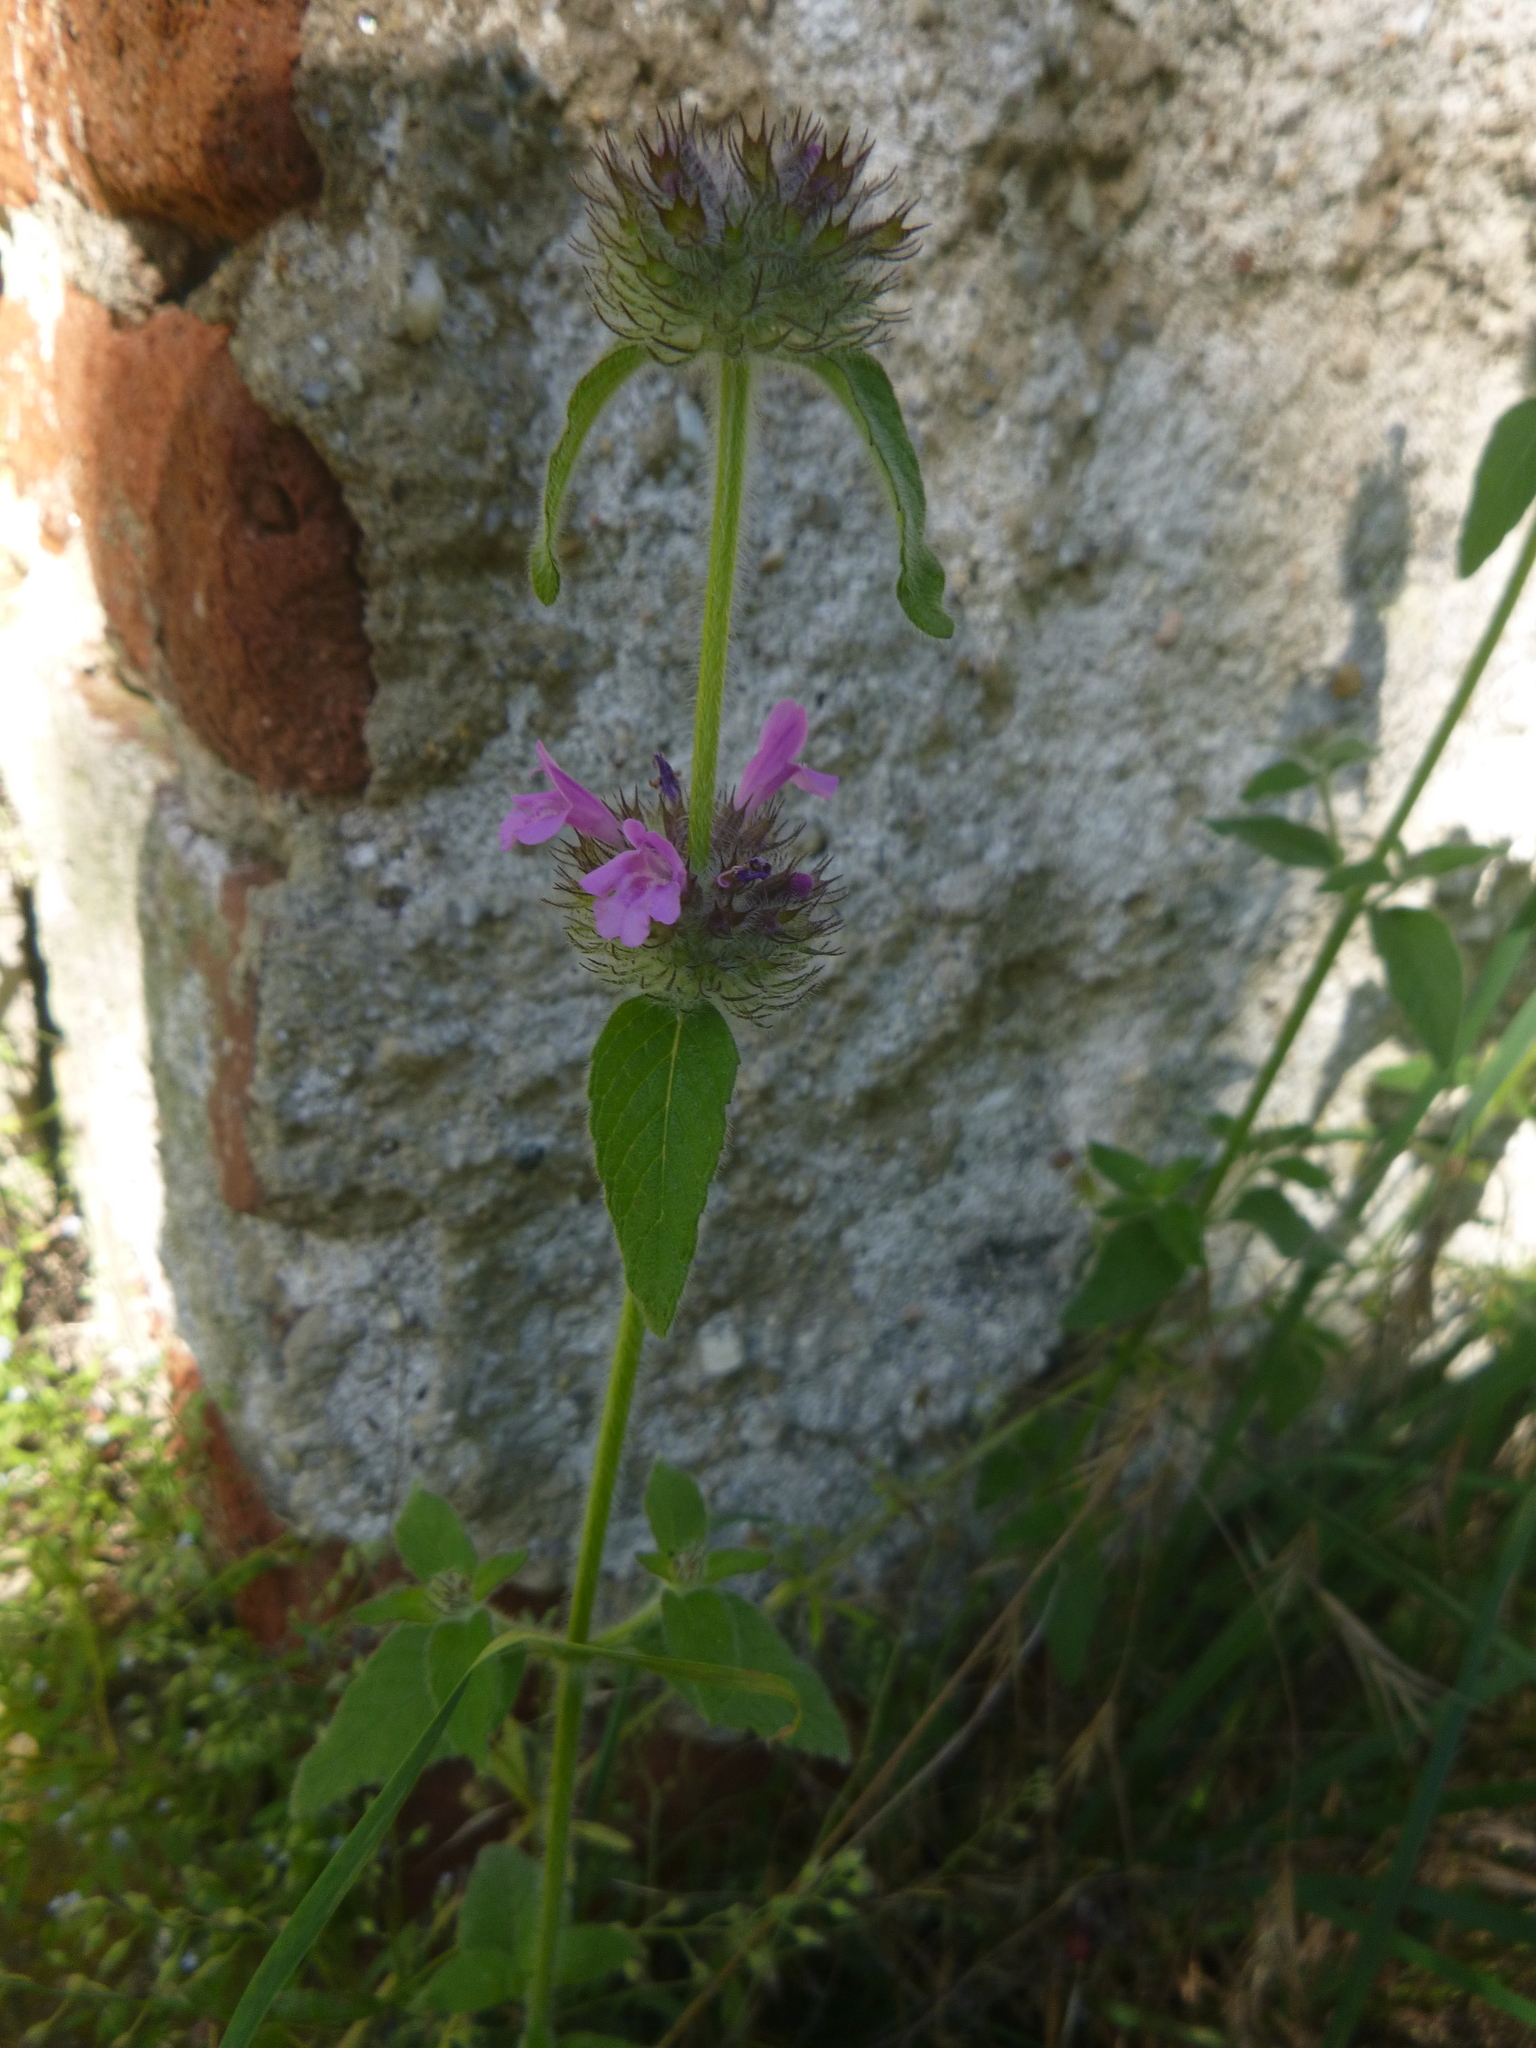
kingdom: Plantae
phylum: Tracheophyta
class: Magnoliopsida
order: Lamiales
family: Lamiaceae
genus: Clinopodium
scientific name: Clinopodium vulgare
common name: Wild basil
